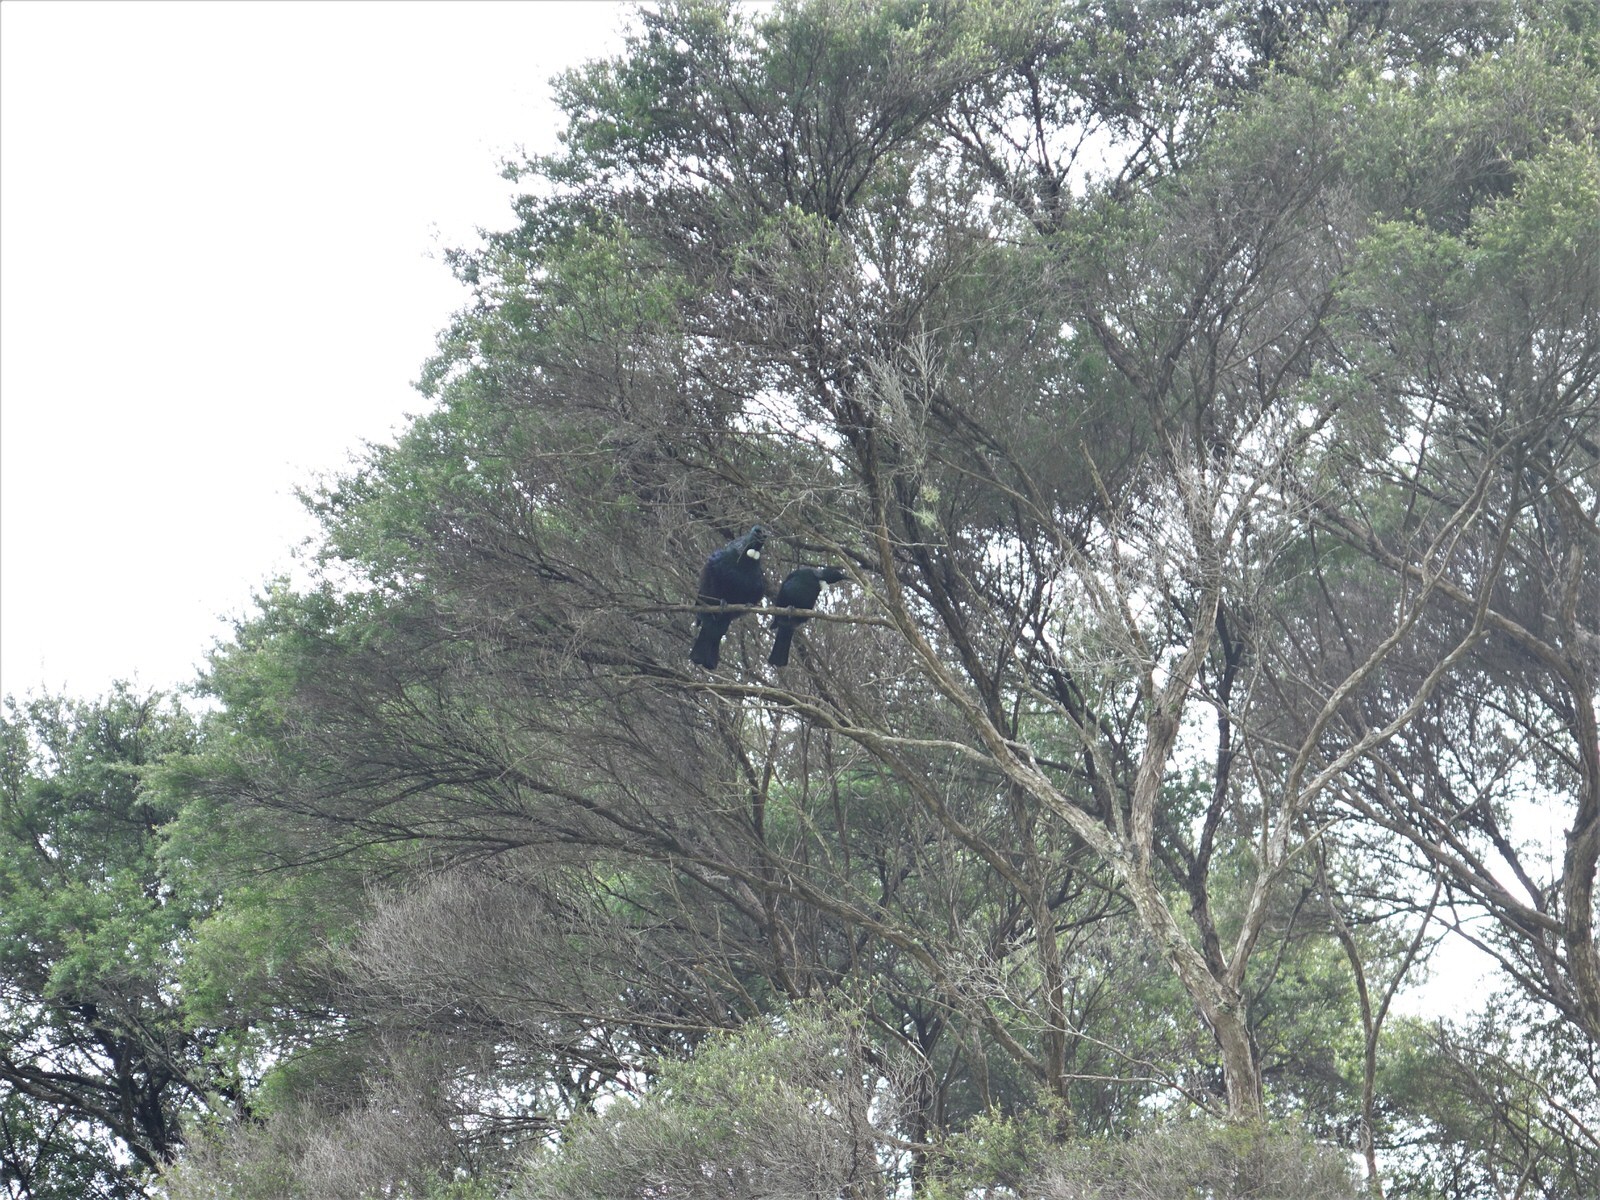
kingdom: Animalia
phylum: Chordata
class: Aves
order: Passeriformes
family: Meliphagidae
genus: Prosthemadera
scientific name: Prosthemadera novaeseelandiae
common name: Tui
